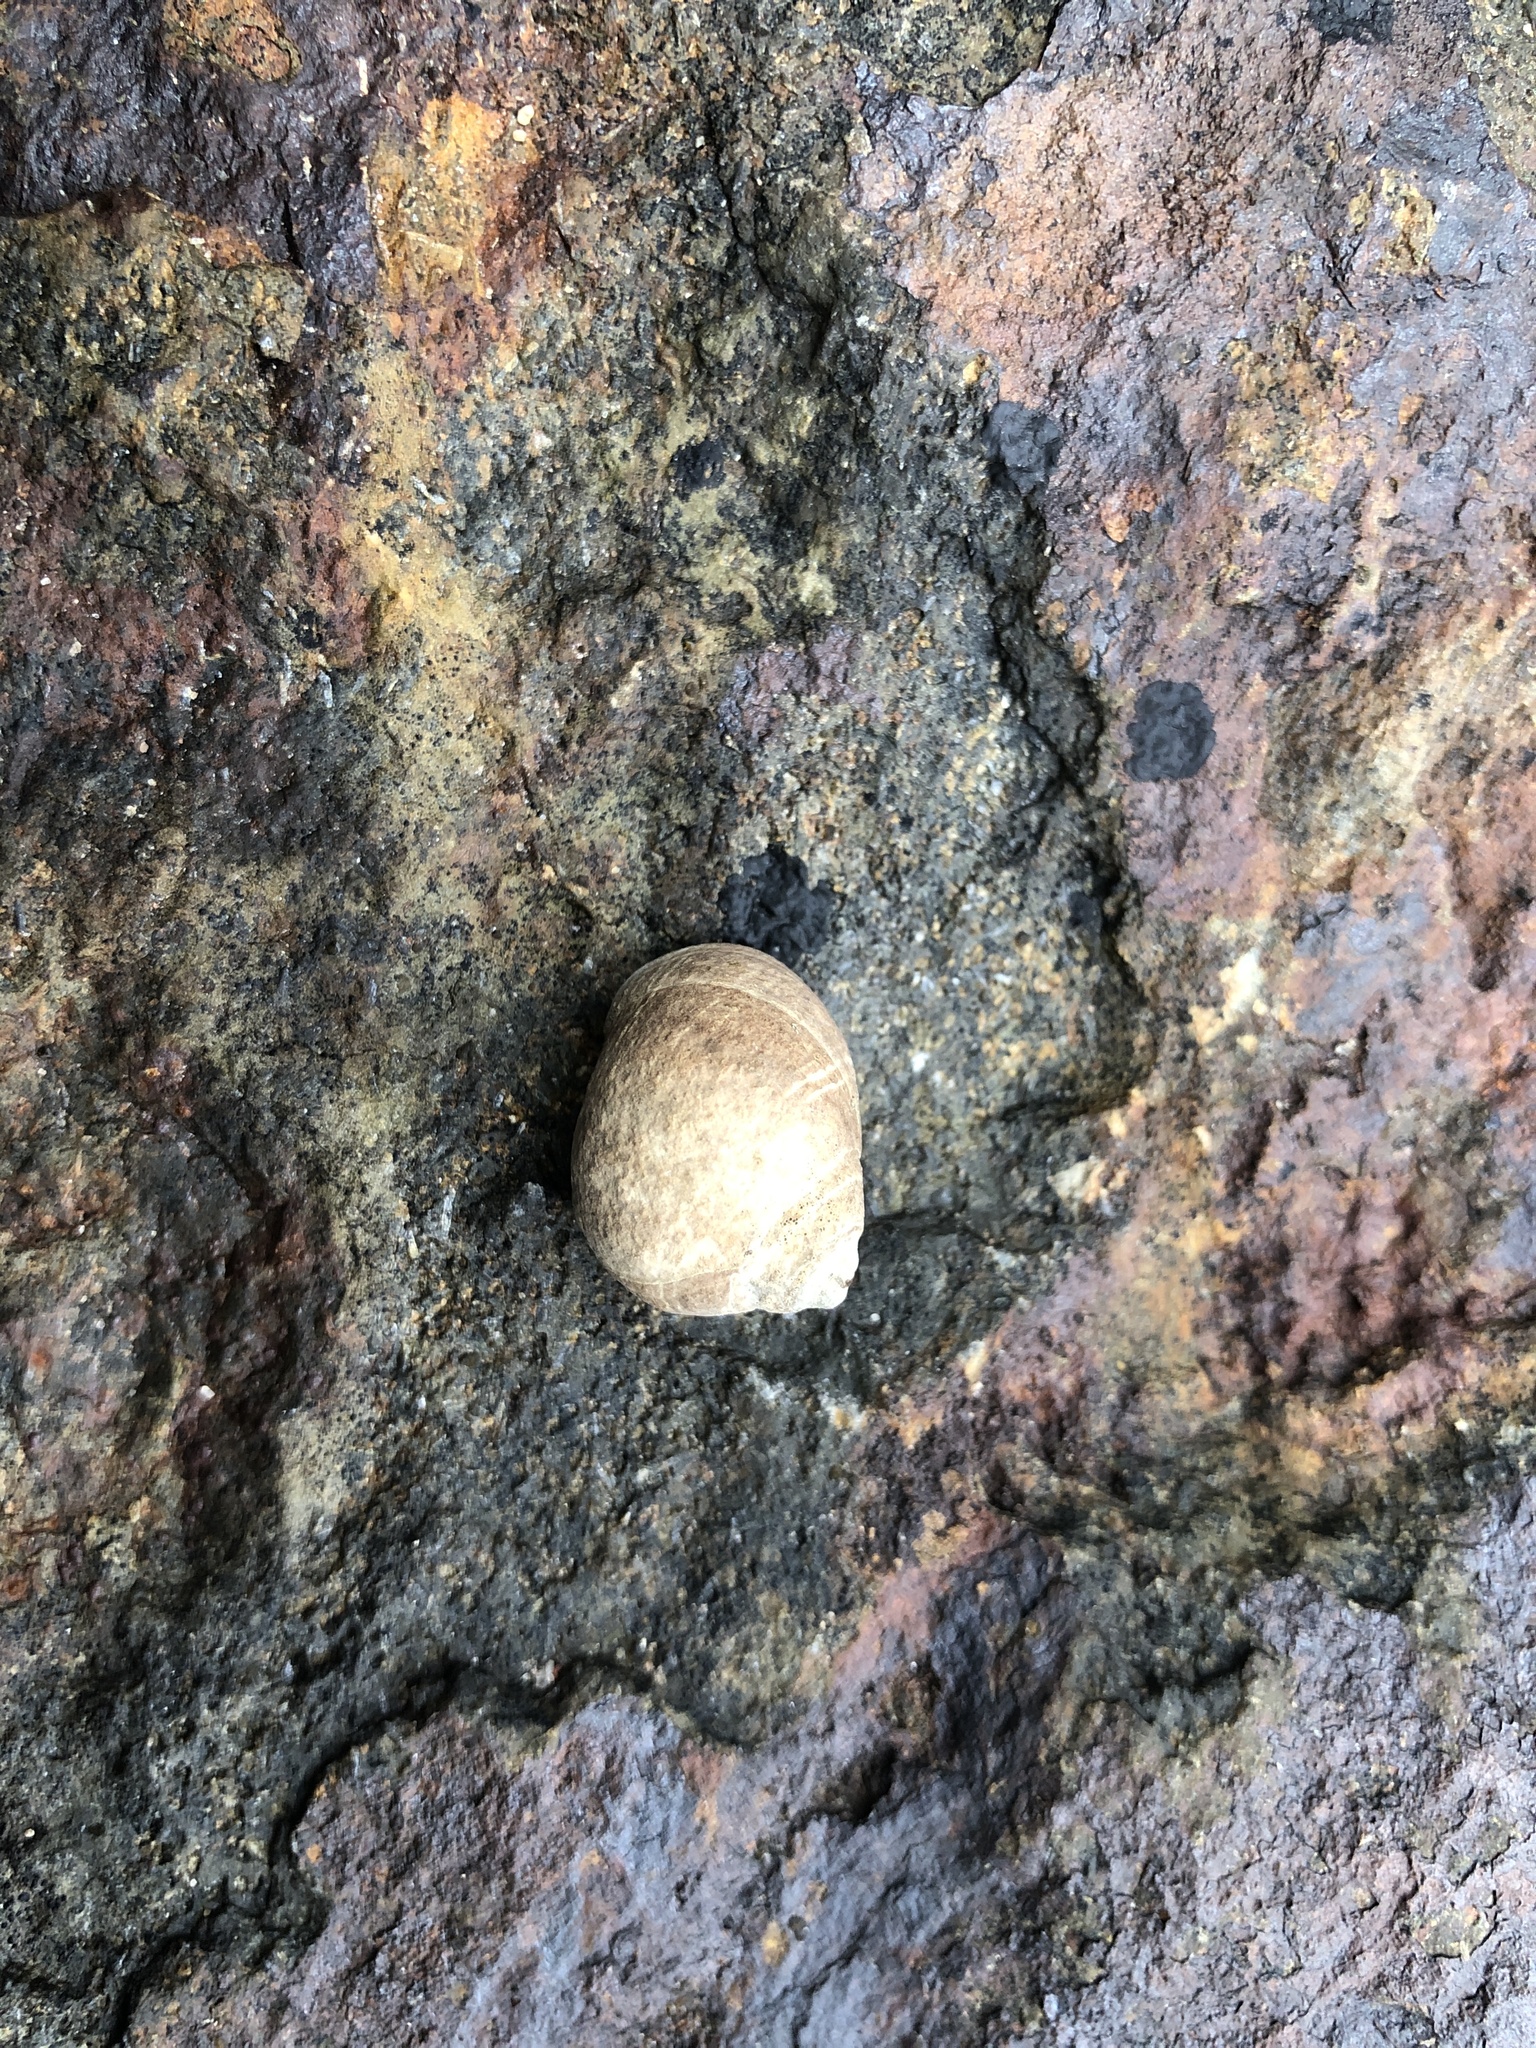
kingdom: Animalia
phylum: Mollusca
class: Gastropoda
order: Littorinimorpha
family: Littorinidae
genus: Littorina
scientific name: Littorina littorea
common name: Common periwinkle
